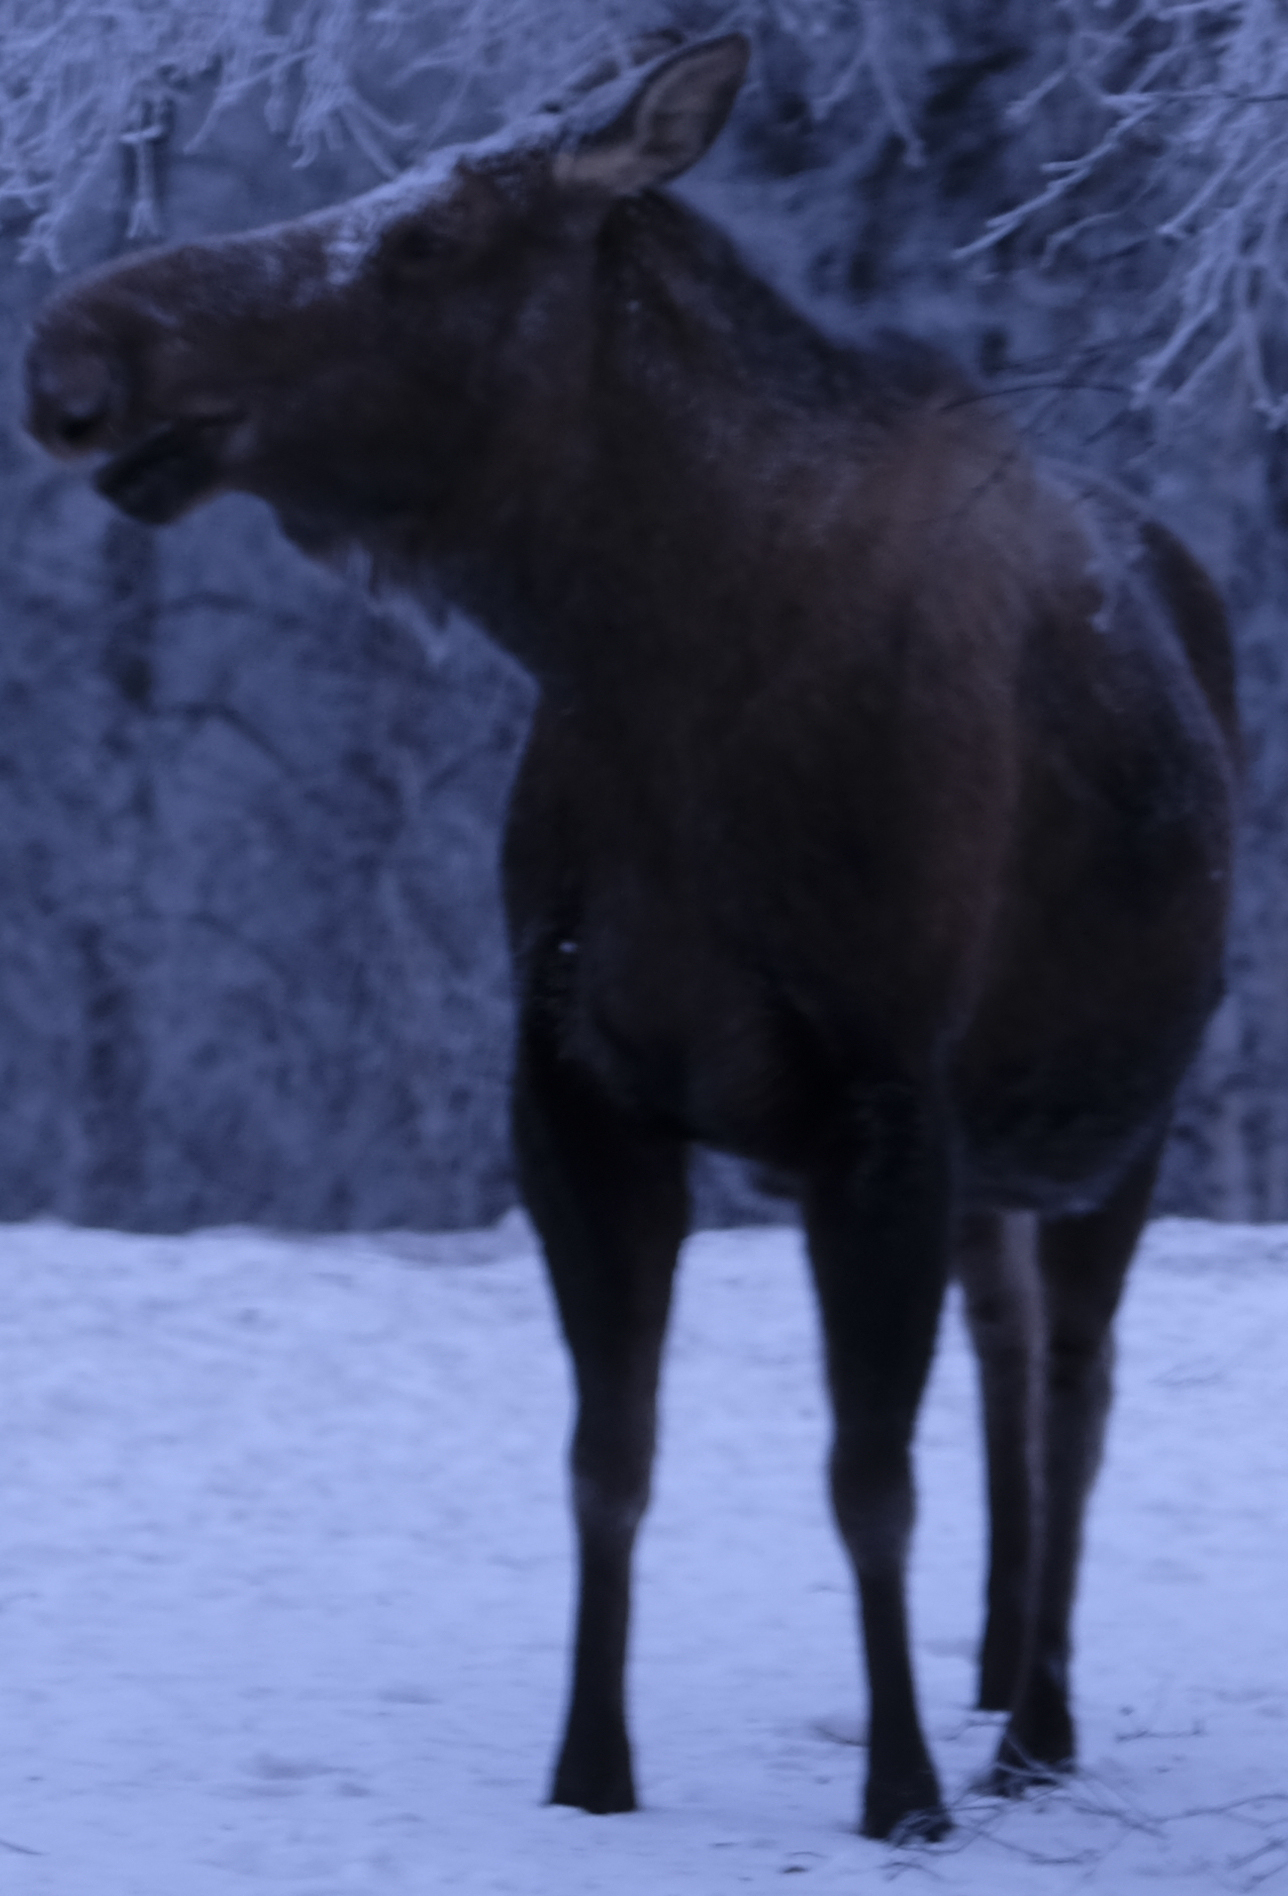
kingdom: Animalia
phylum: Chordata
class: Mammalia
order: Artiodactyla
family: Cervidae
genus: Alces
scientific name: Alces alces
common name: Moose
